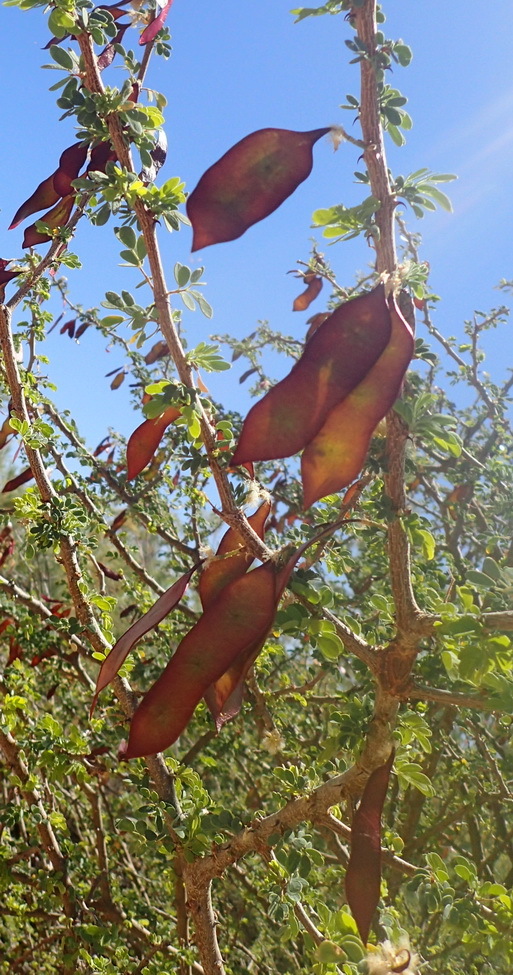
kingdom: Plantae
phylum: Tracheophyta
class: Magnoliopsida
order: Fabales
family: Fabaceae
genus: Senegalia
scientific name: Senegalia mellifera
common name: Hookthorn
